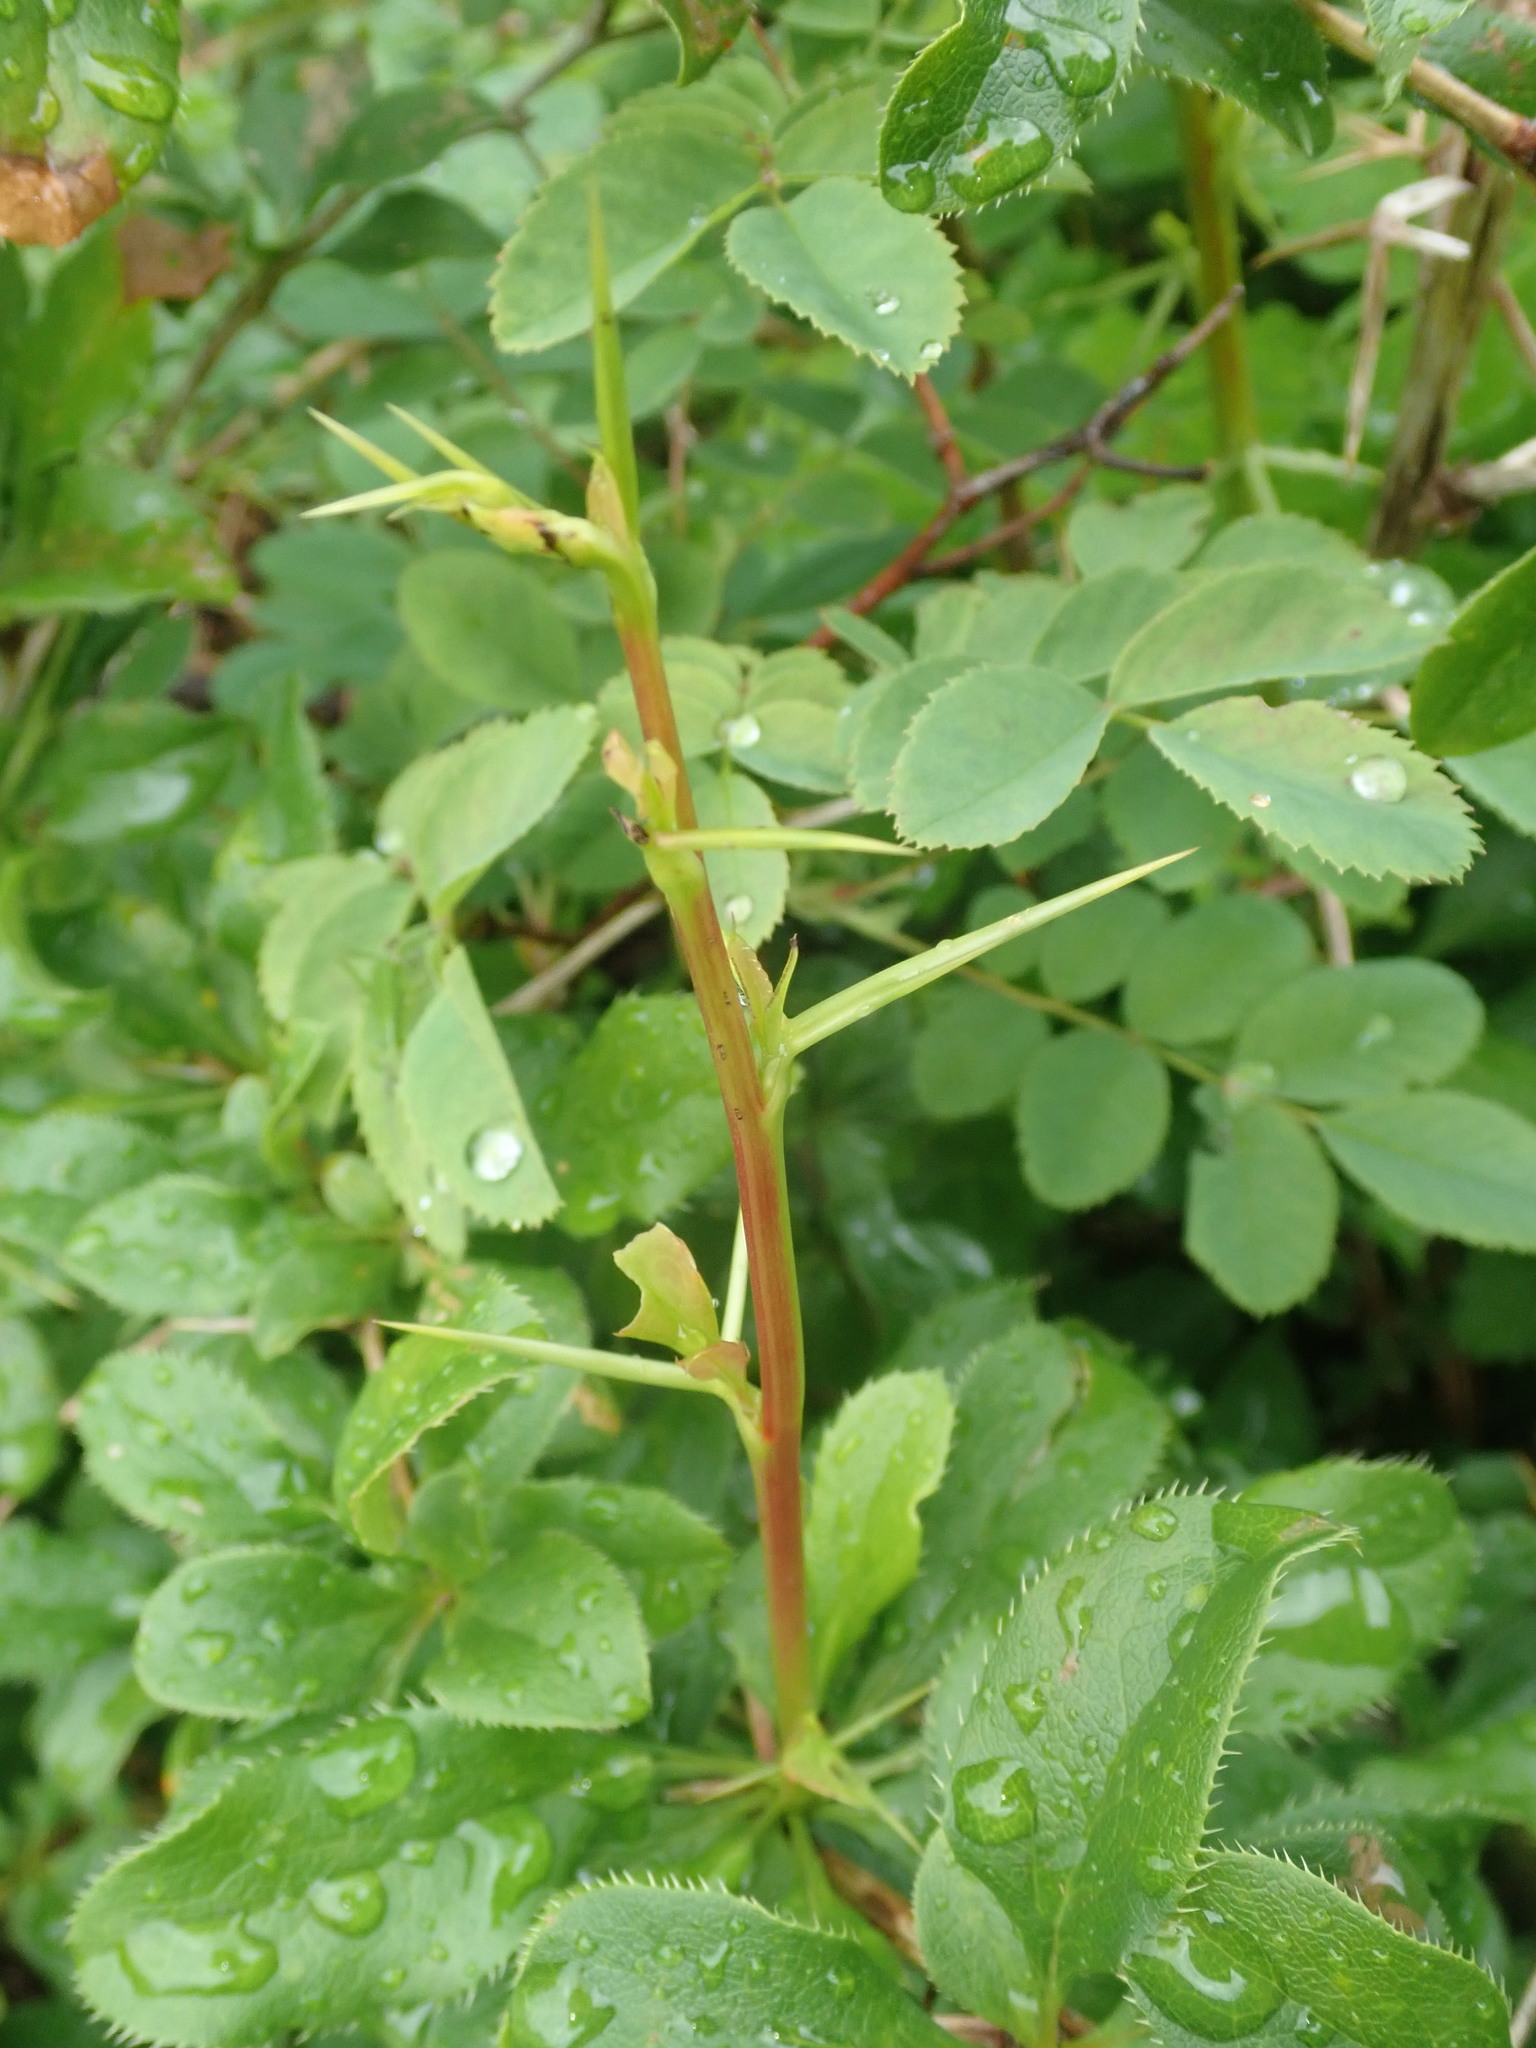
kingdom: Plantae
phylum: Tracheophyta
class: Magnoliopsida
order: Ranunculales
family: Berberidaceae
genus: Berberis
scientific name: Berberis vulgaris
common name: Barberry
